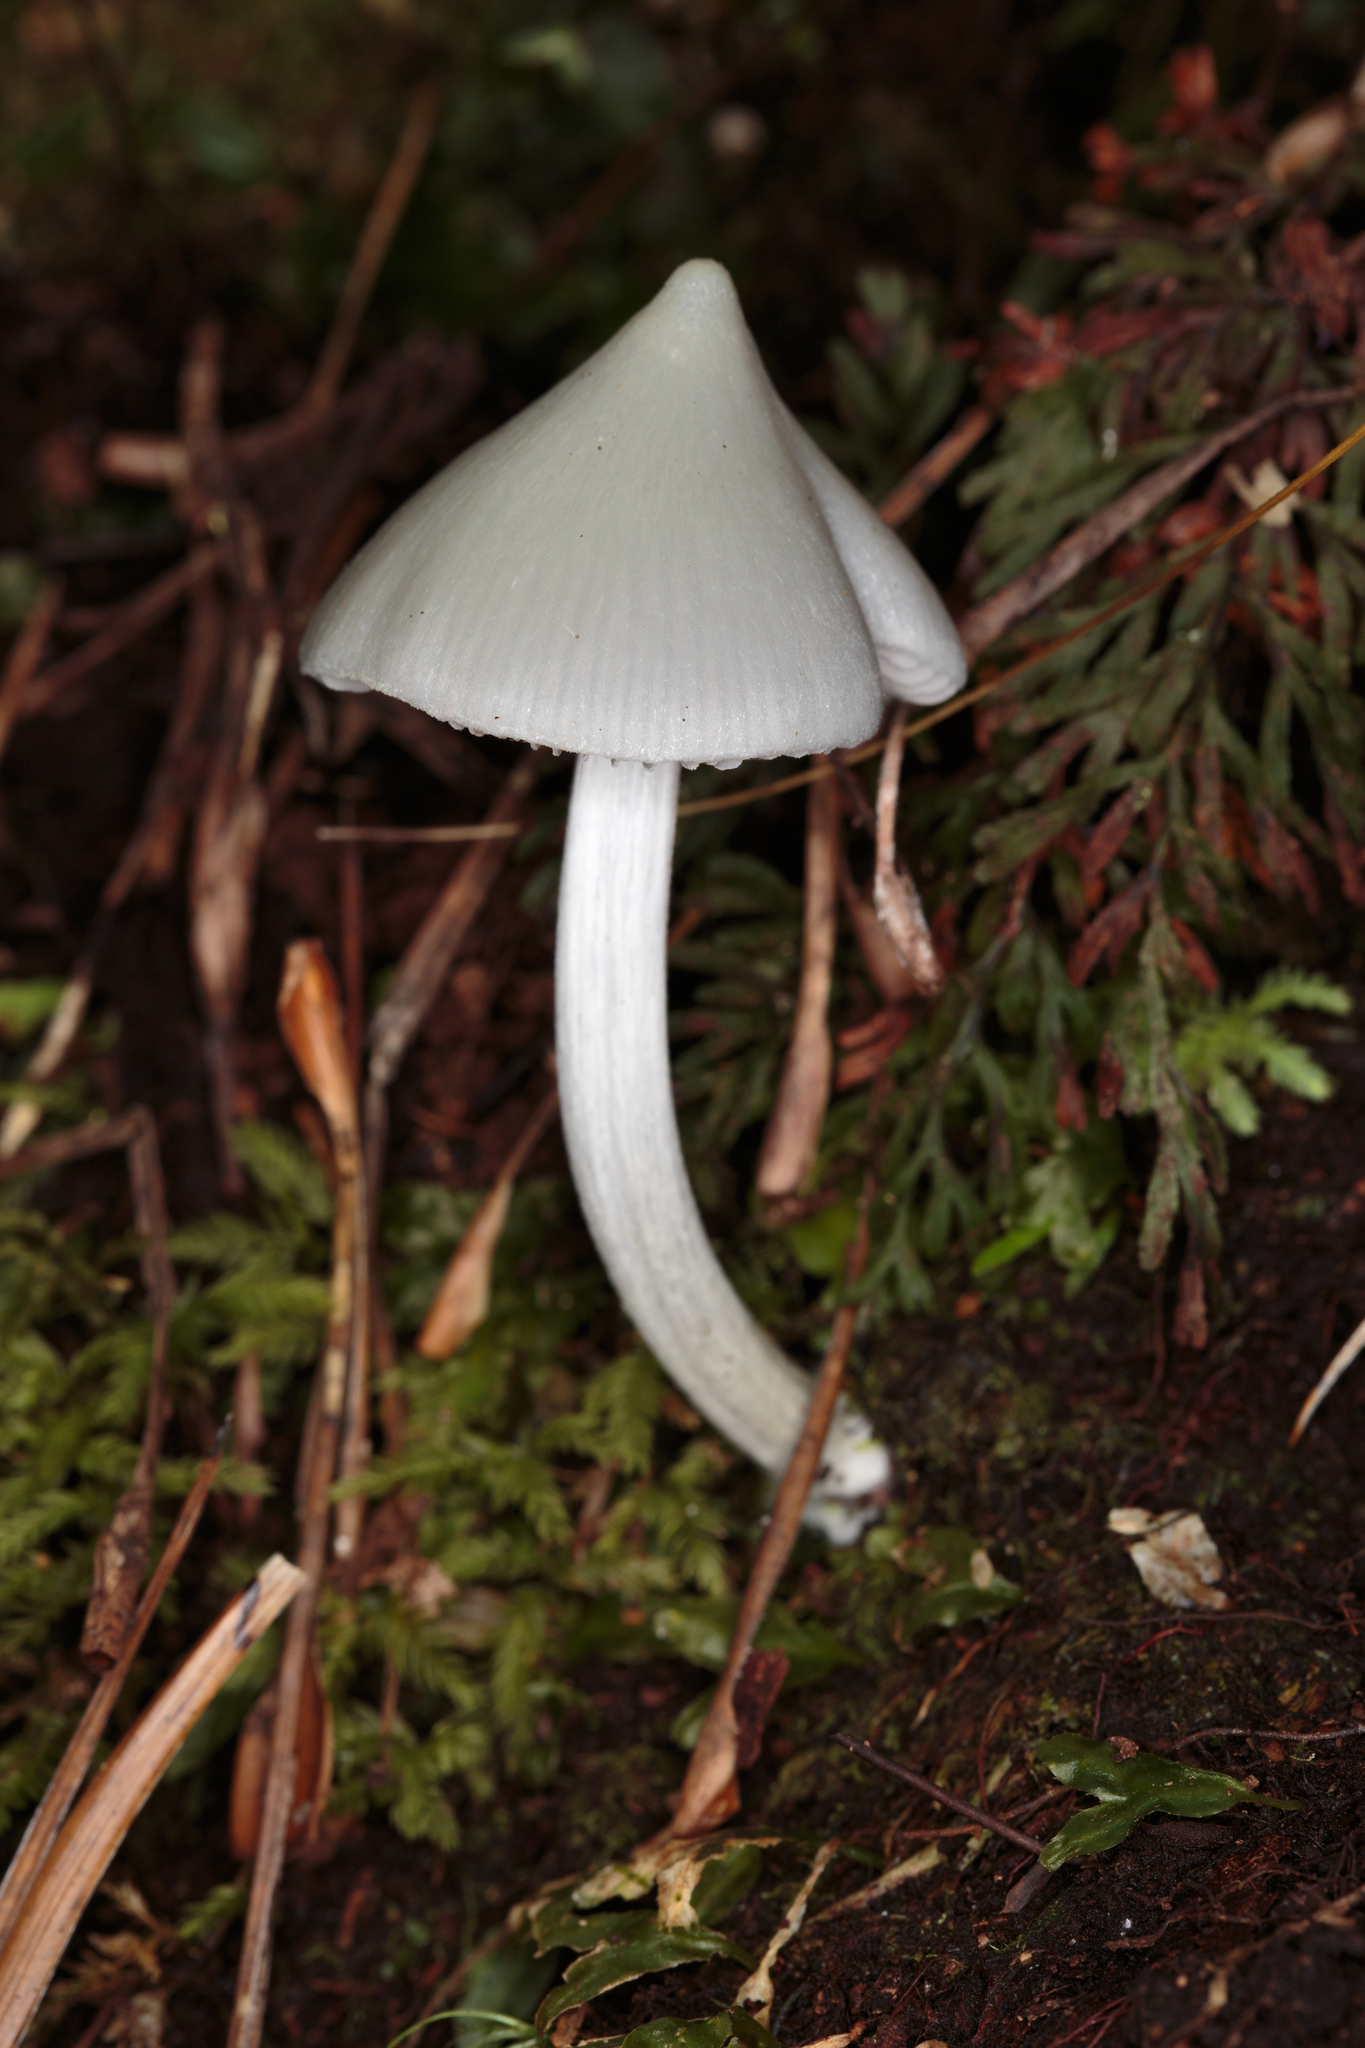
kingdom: Fungi
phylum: Basidiomycota
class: Agaricomycetes
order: Agaricales
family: Entolomataceae
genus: Entoloma
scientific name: Entoloma canoconicum
